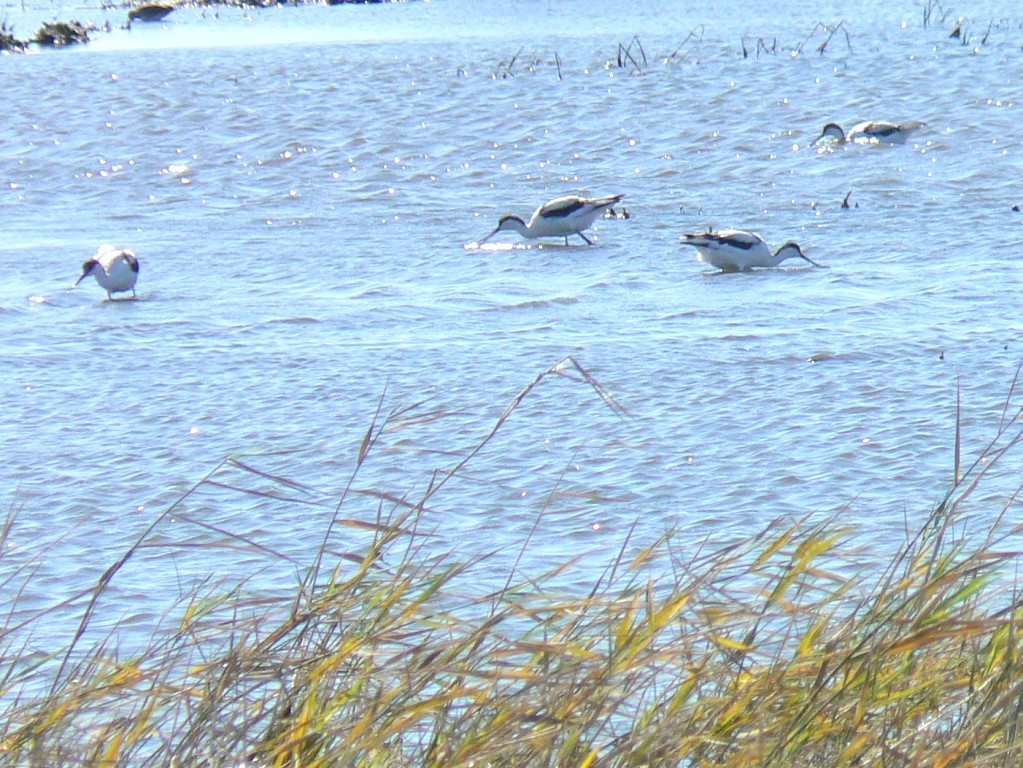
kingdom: Animalia
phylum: Chordata
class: Aves
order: Charadriiformes
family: Recurvirostridae
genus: Recurvirostra
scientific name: Recurvirostra avosetta
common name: Pied avocet
